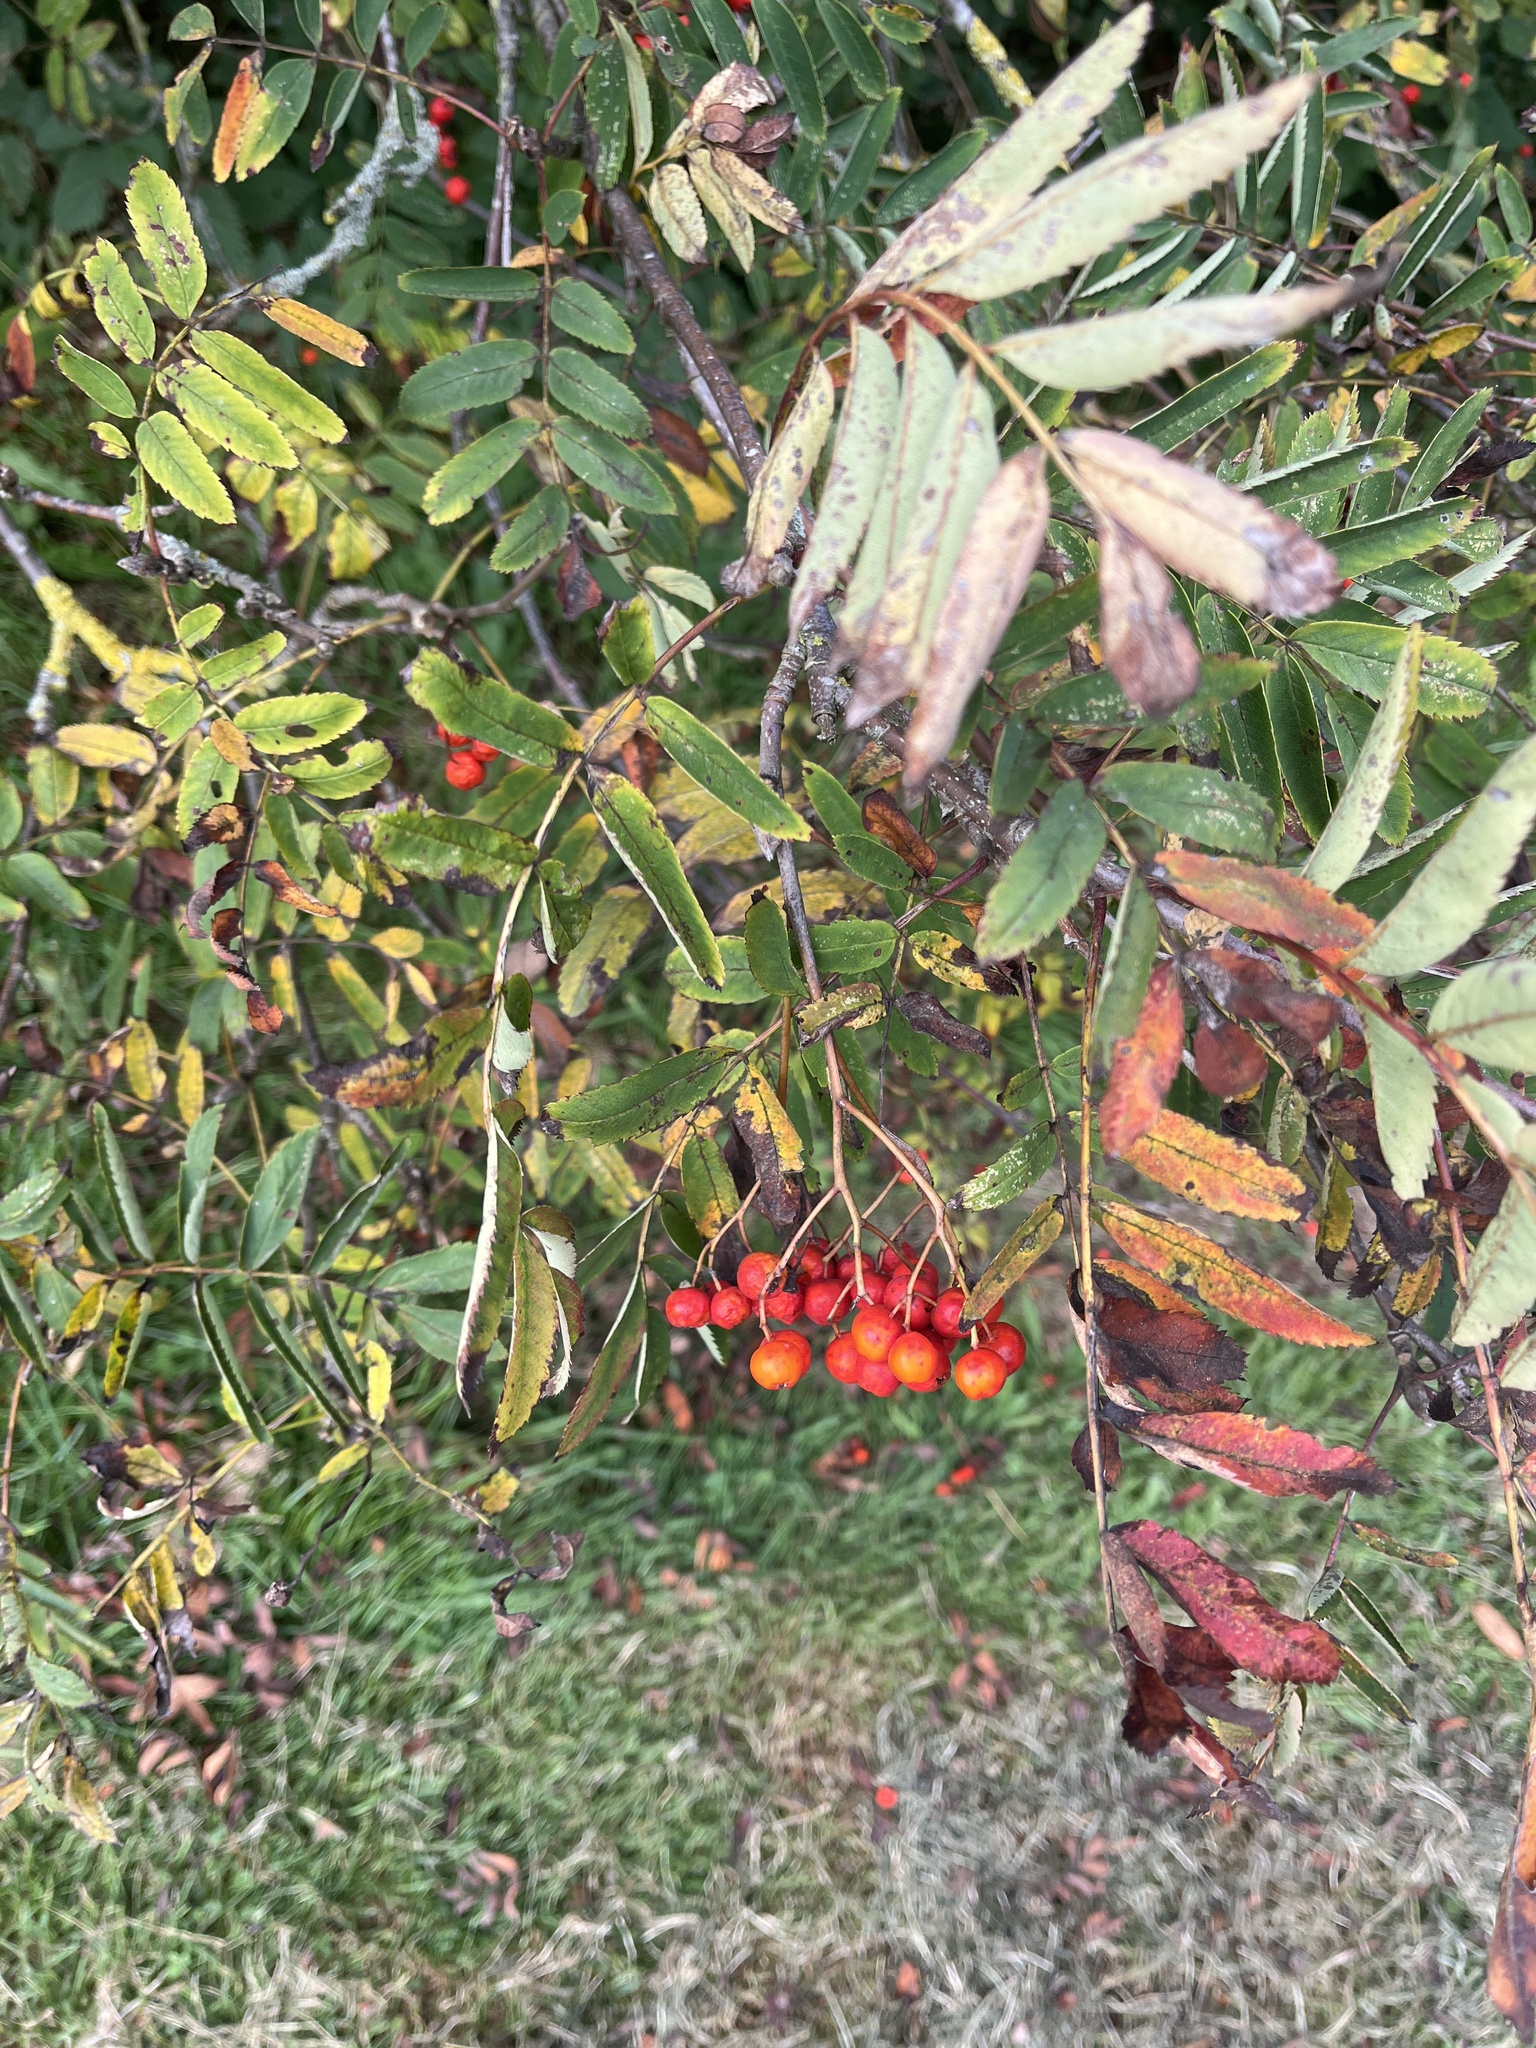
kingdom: Plantae
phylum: Tracheophyta
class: Magnoliopsida
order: Rosales
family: Rosaceae
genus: Sorbus
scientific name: Sorbus aucuparia
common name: Rowan
